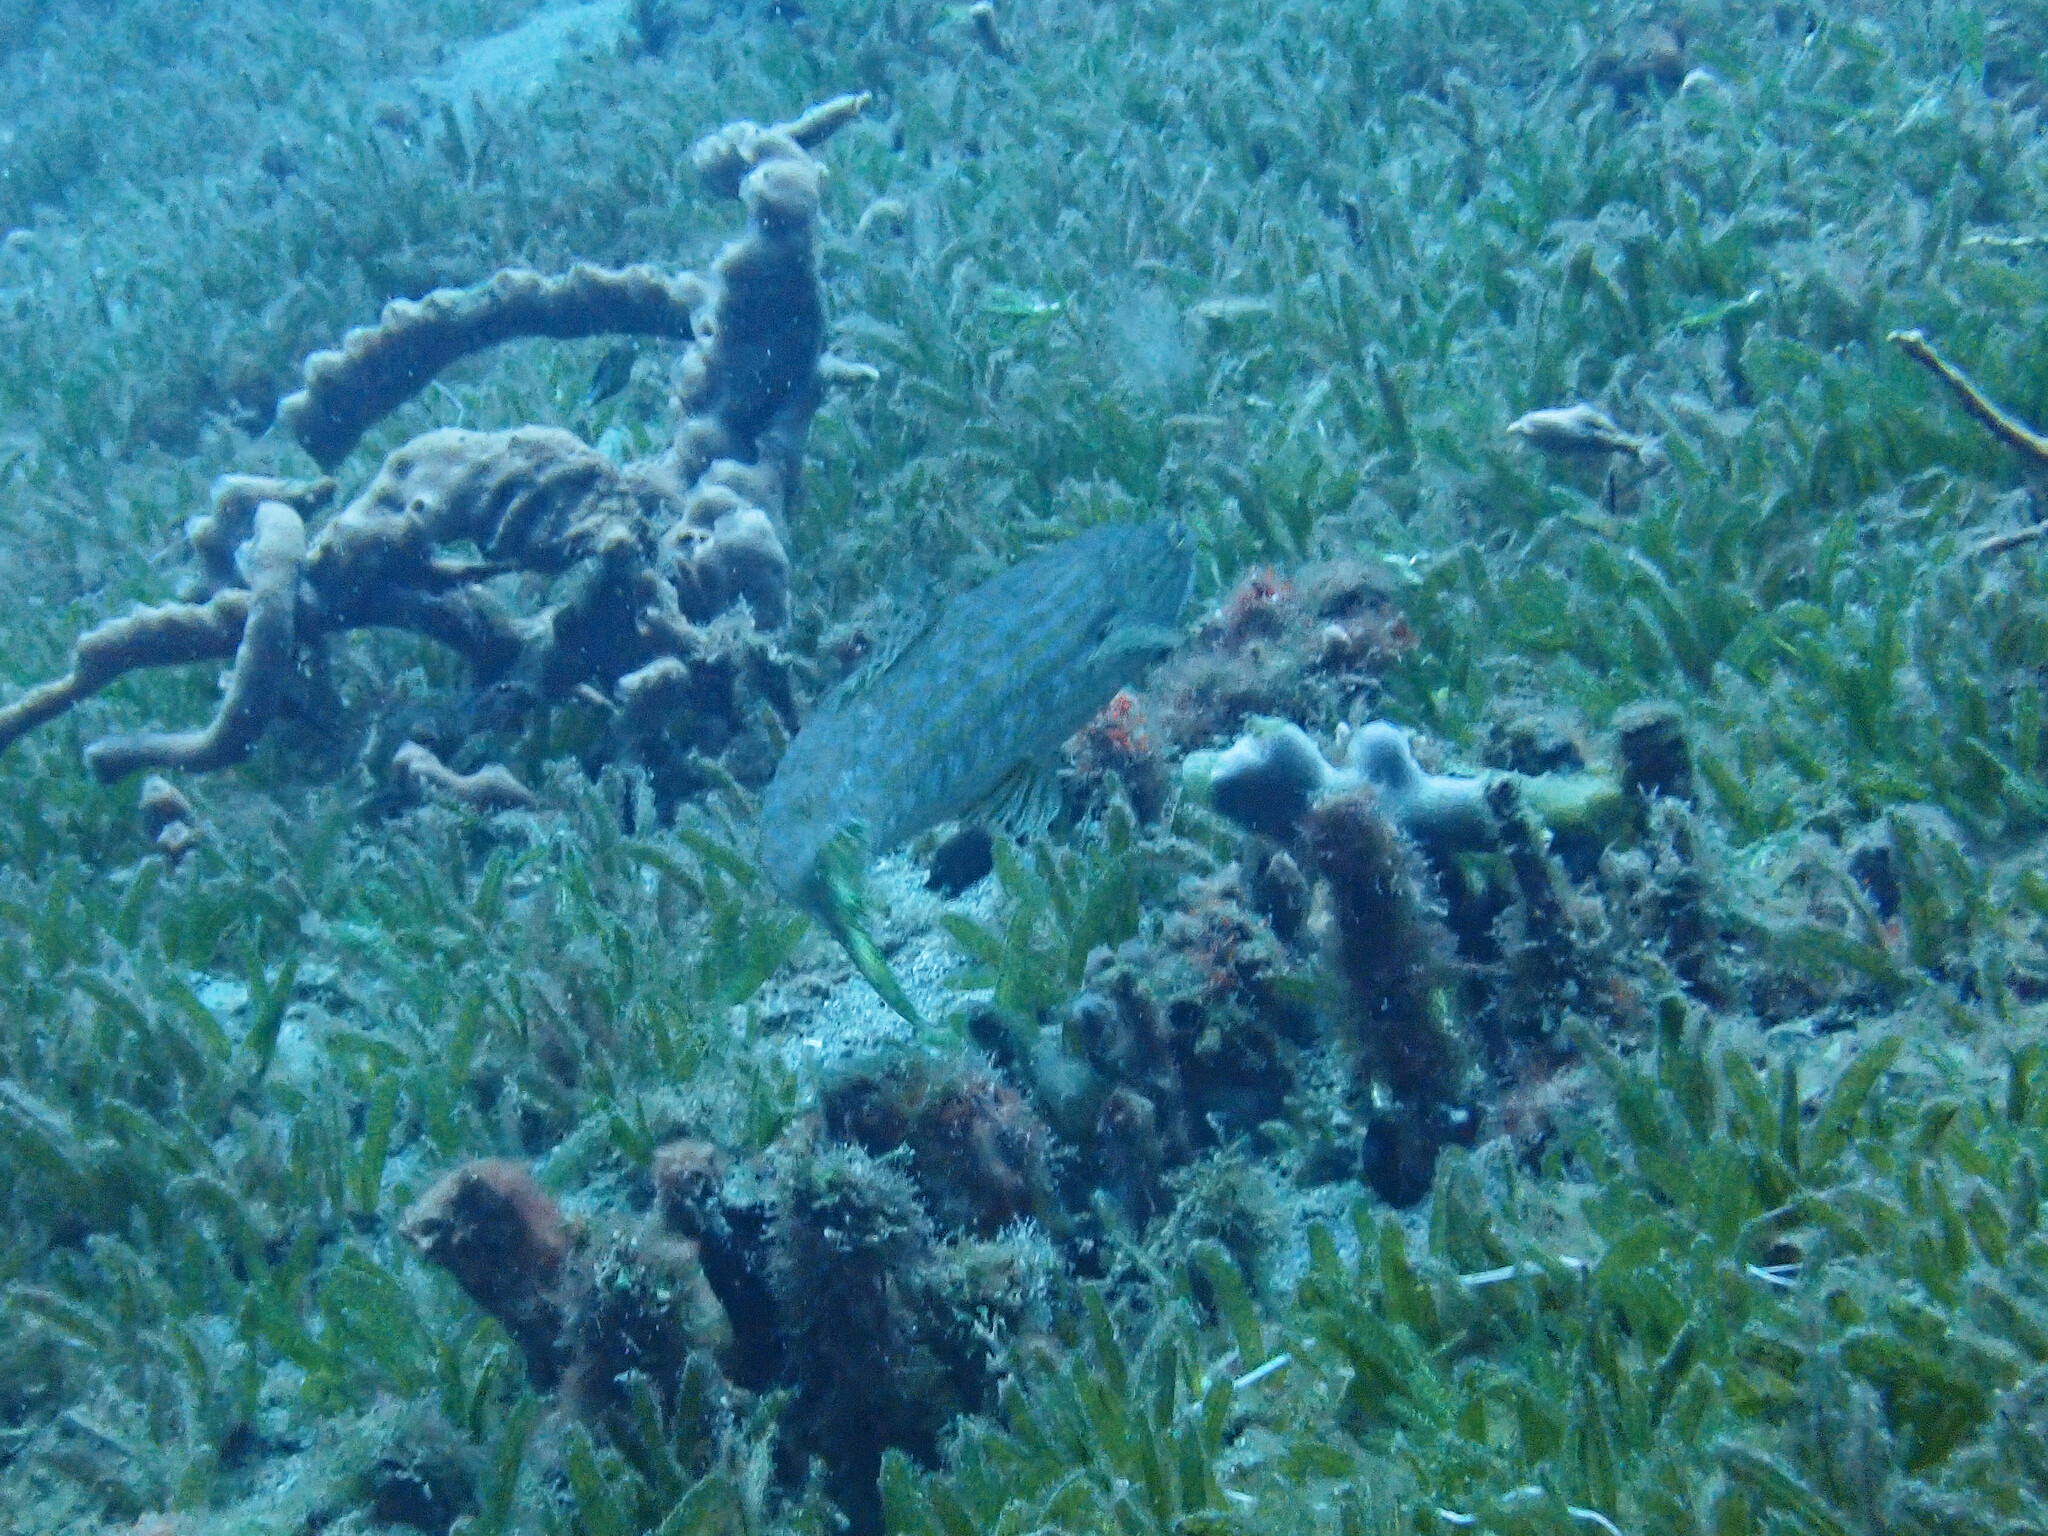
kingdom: Animalia
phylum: Chordata
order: Aulopiformes
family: Synodontidae
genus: Synodus
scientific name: Synodus intermedius
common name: Sand diver
